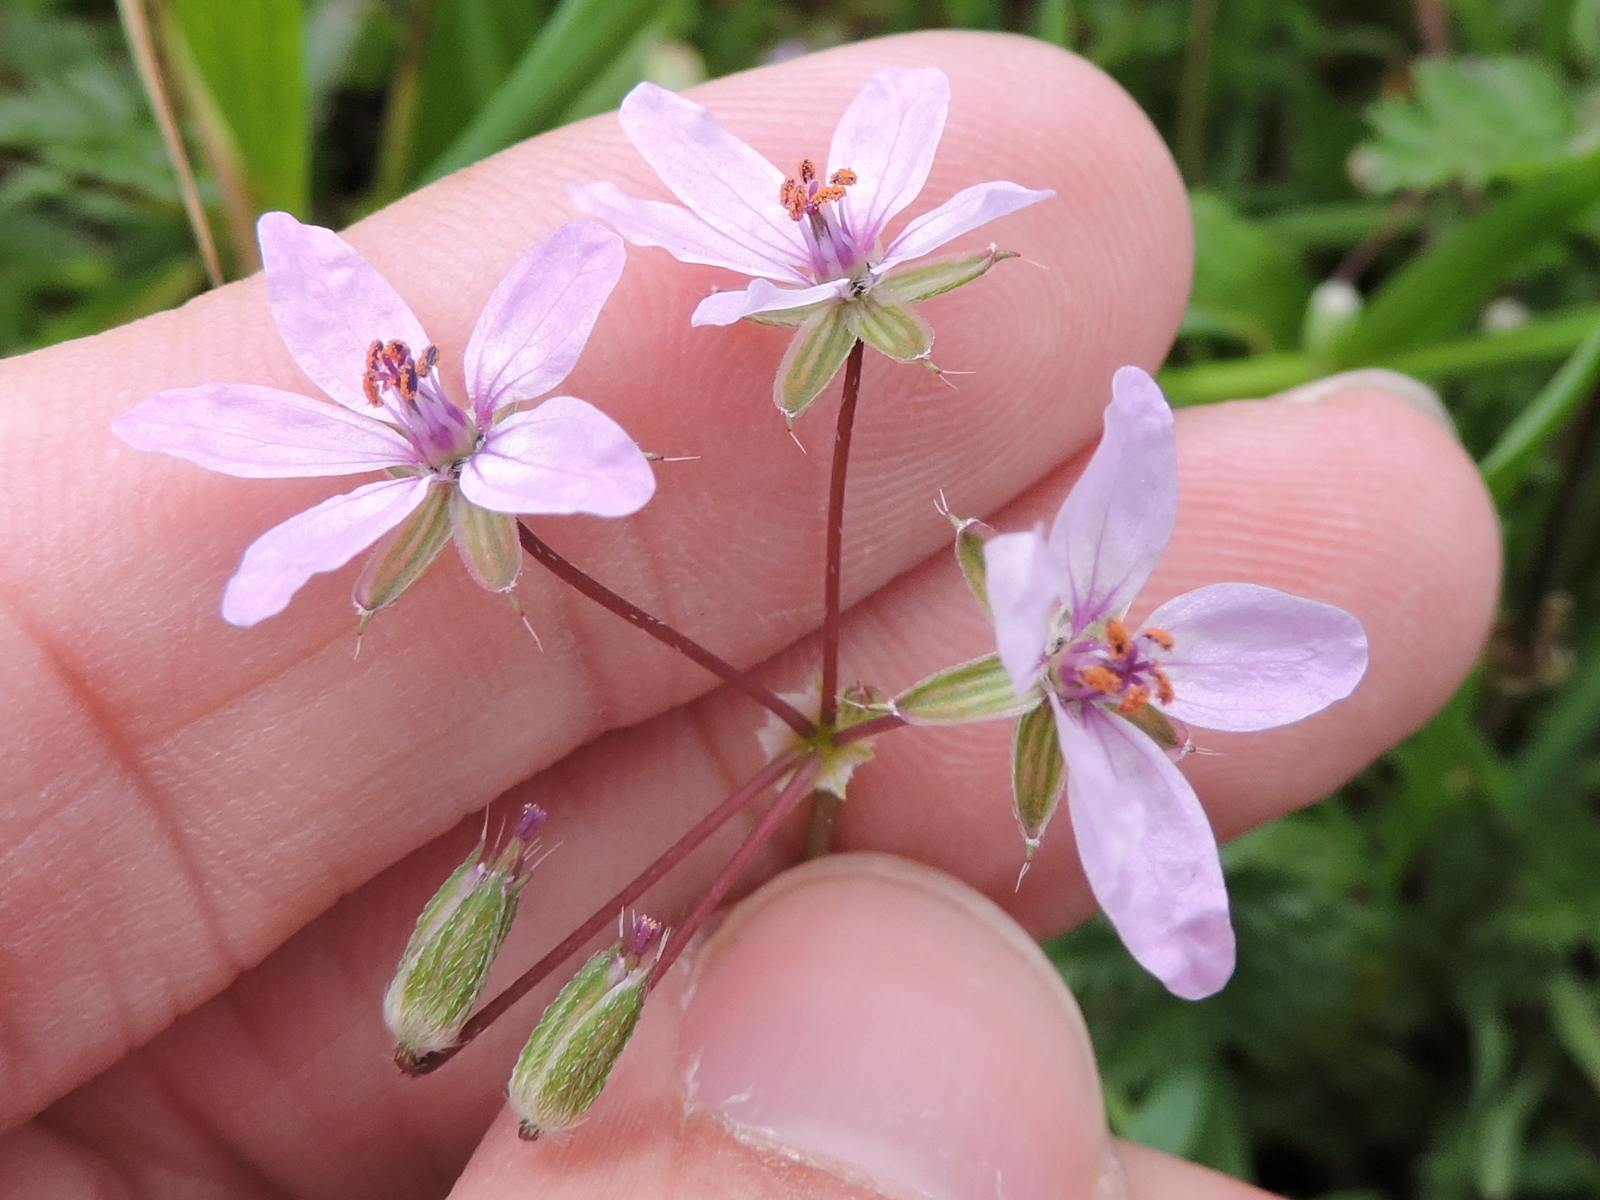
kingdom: Plantae
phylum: Tracheophyta
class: Magnoliopsida
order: Geraniales
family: Geraniaceae
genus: Erodium
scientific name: Erodium cicutarium
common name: Common stork's-bill
